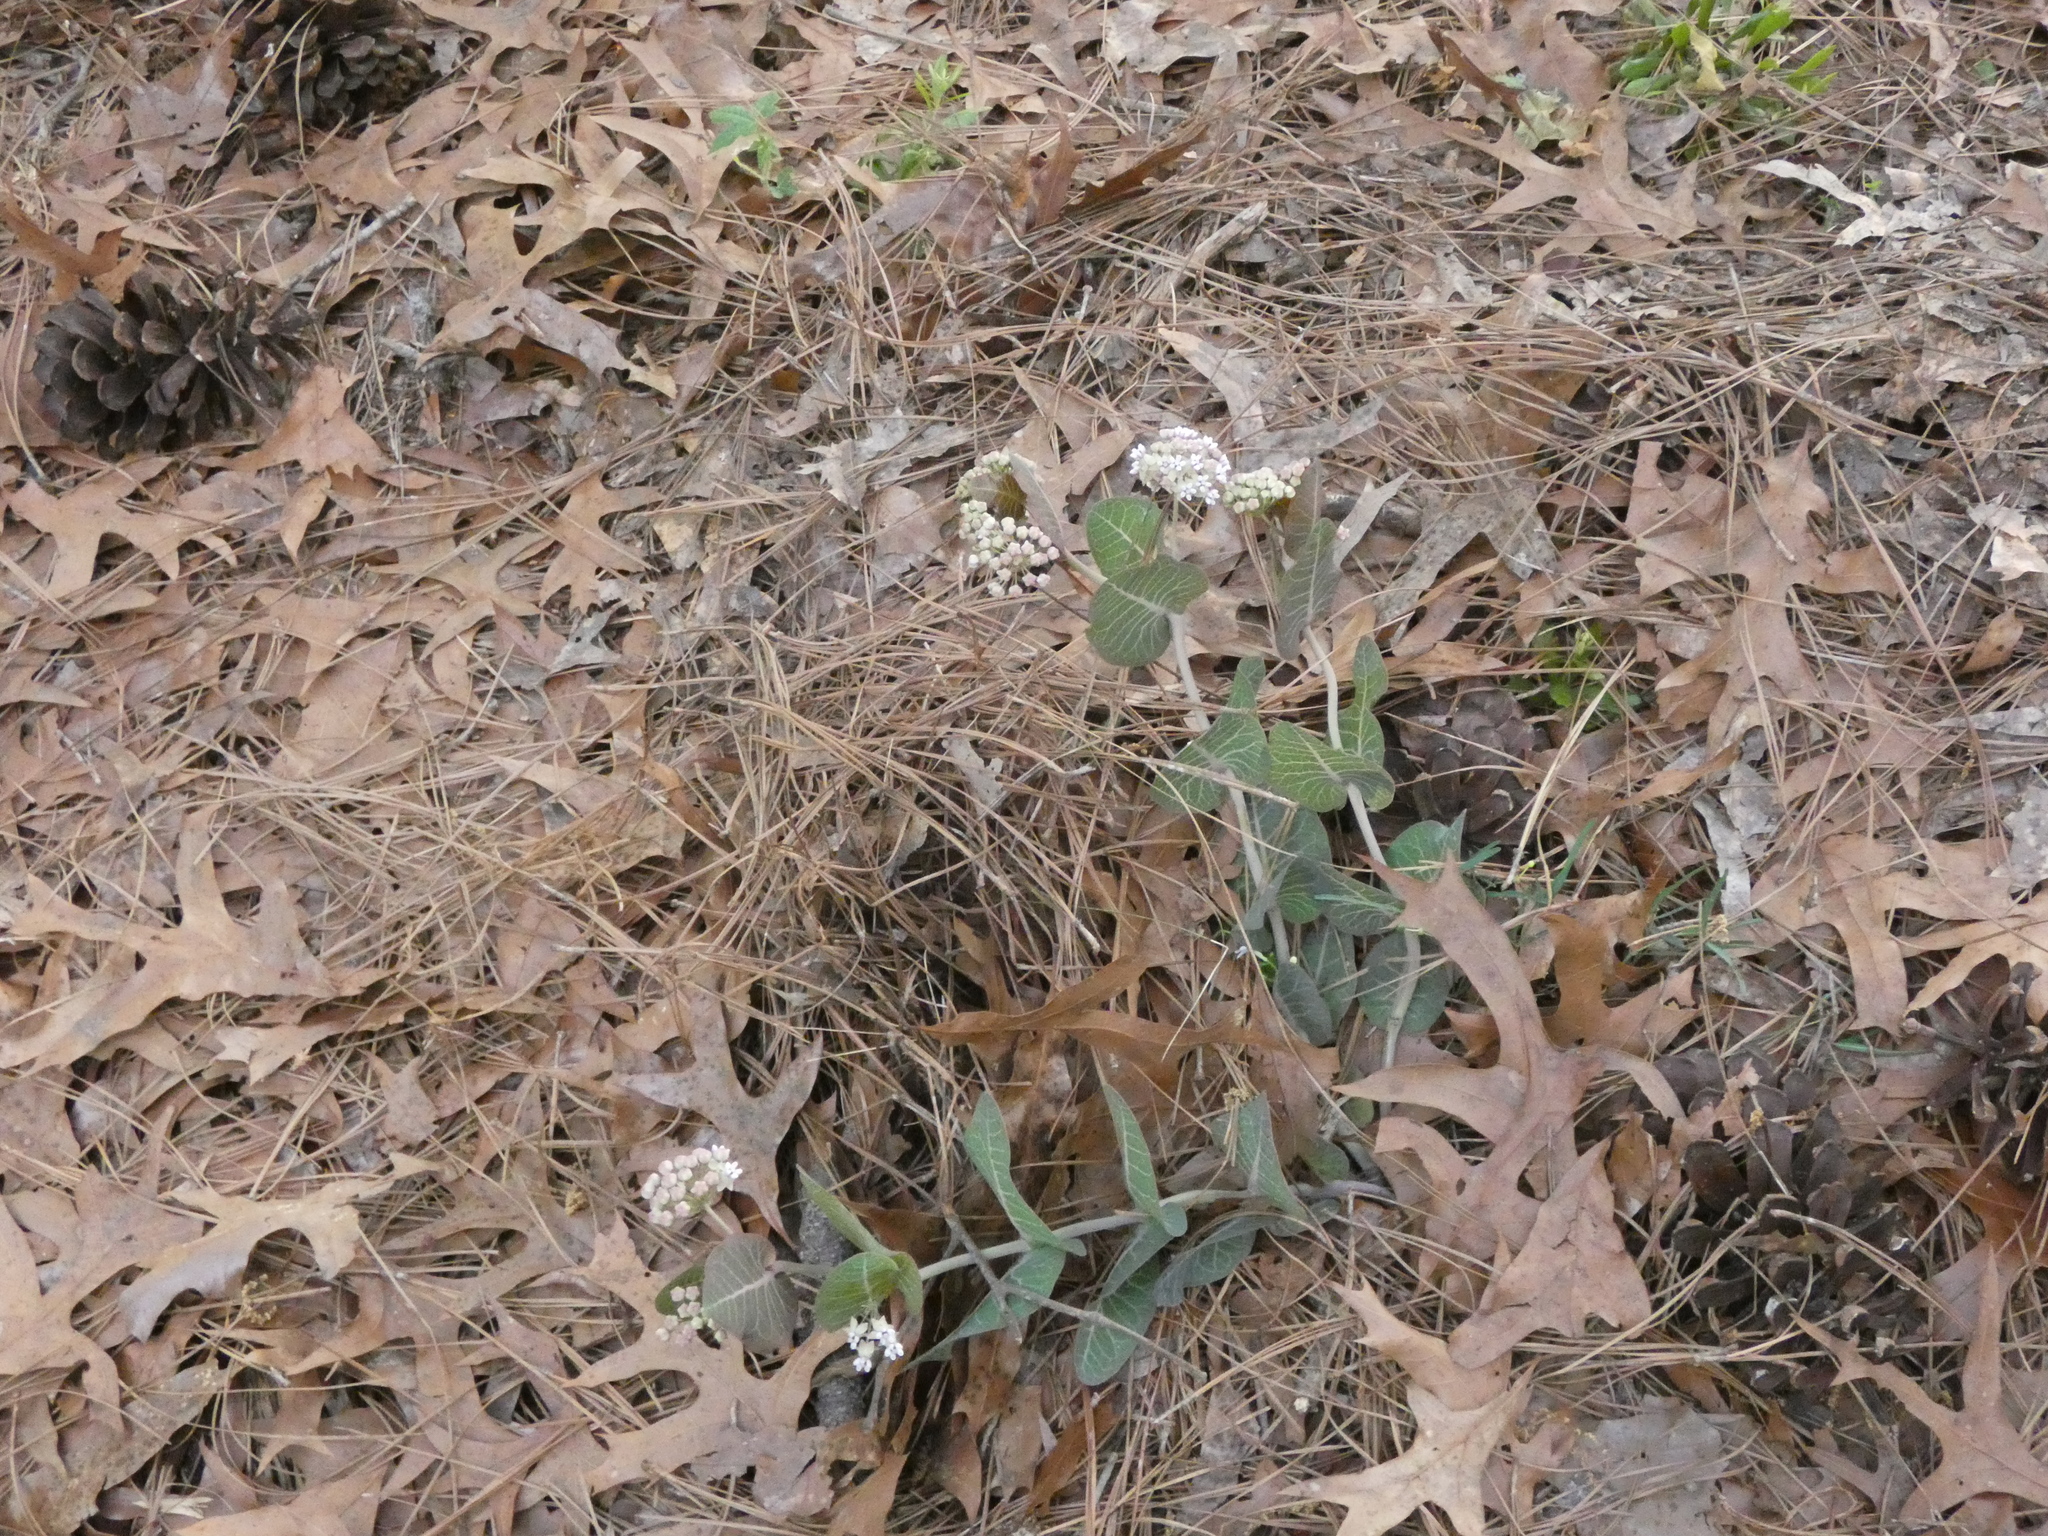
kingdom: Plantae
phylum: Tracheophyta
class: Magnoliopsida
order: Gentianales
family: Apocynaceae
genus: Asclepias
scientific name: Asclepias humistrata
